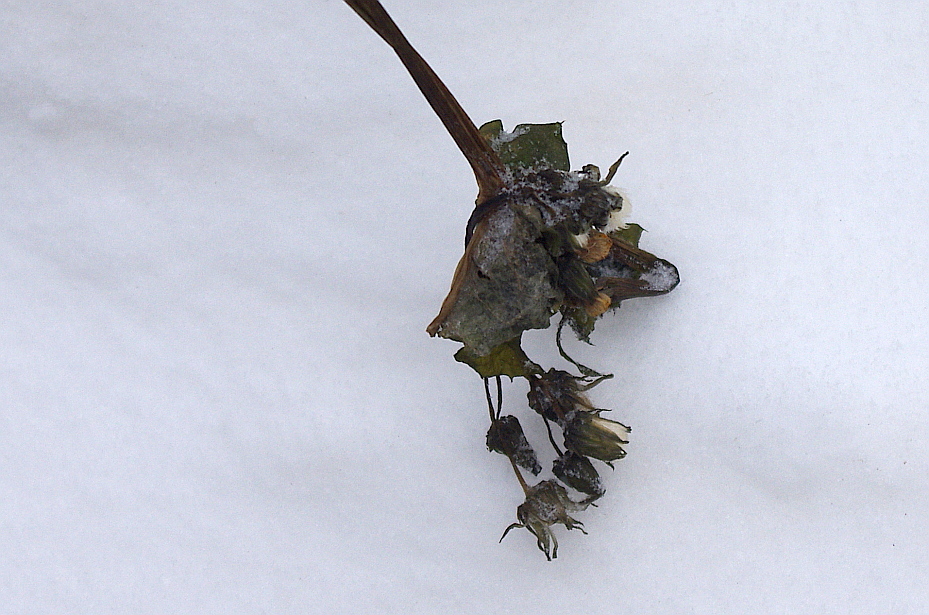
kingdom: Plantae
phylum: Tracheophyta
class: Magnoliopsida
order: Asterales
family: Asteraceae
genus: Sonchus
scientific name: Sonchus oleraceus
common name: Common sowthistle
